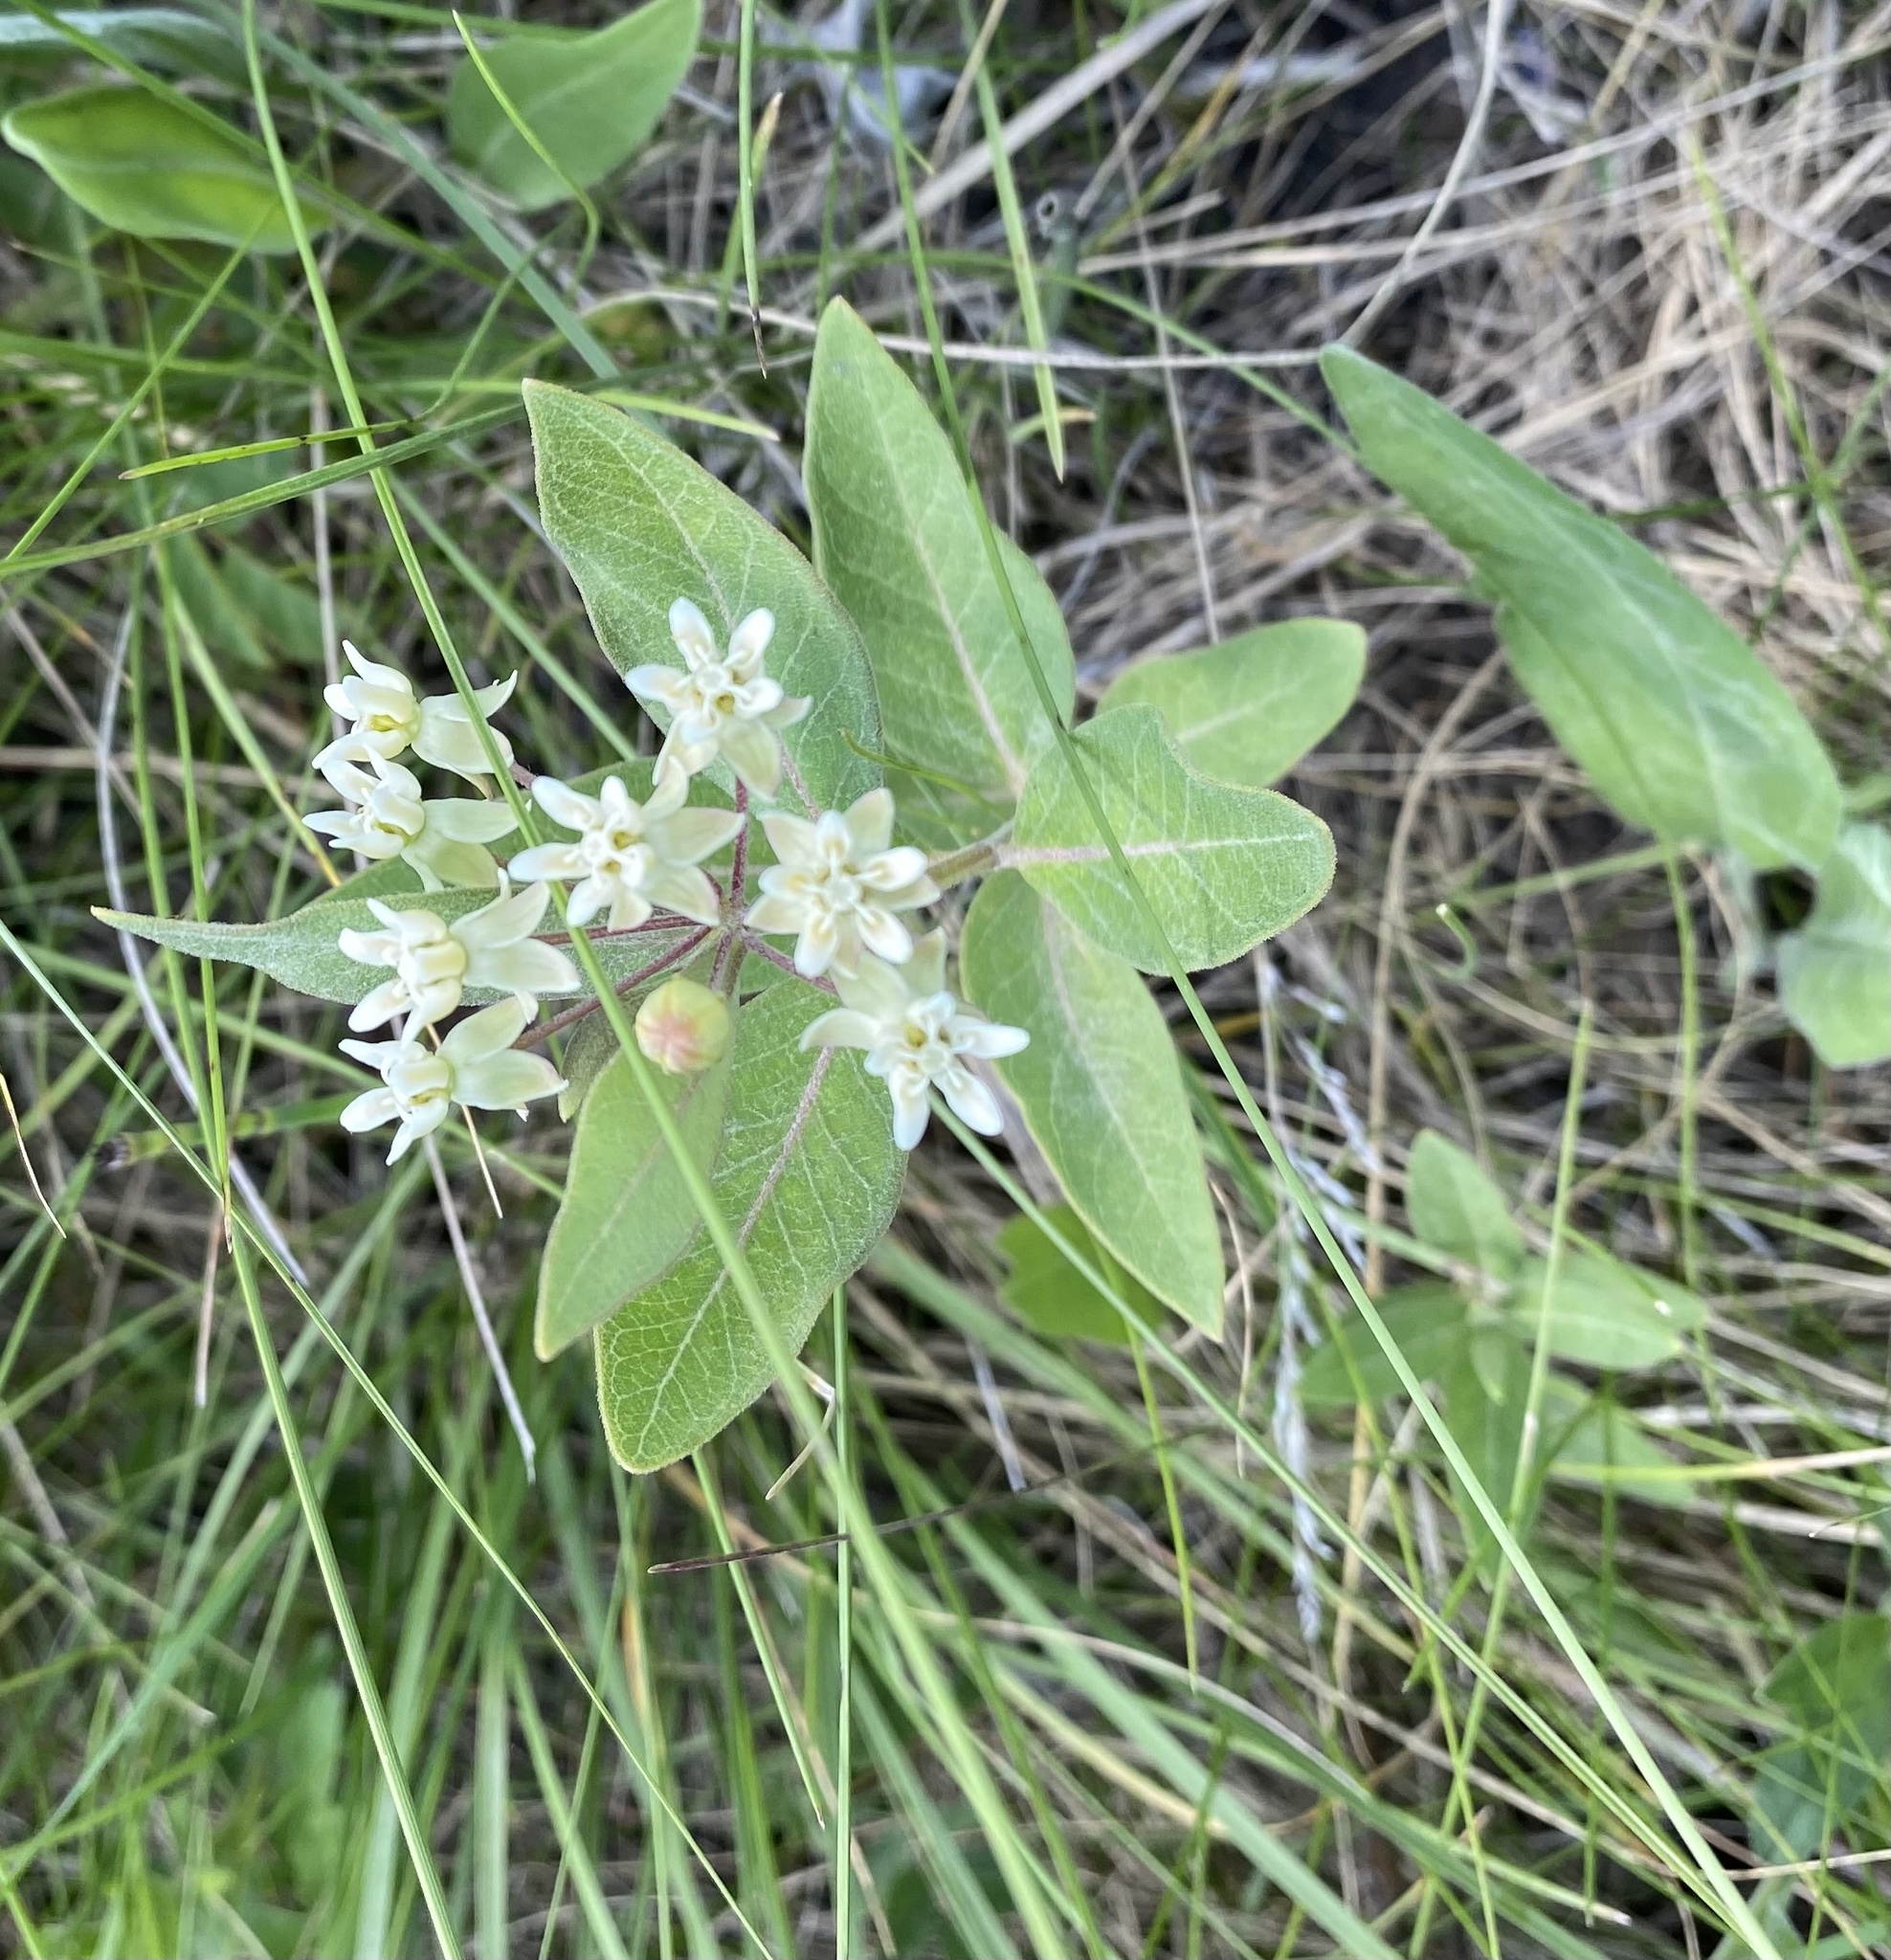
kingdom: Plantae
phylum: Tracheophyta
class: Magnoliopsida
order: Gentianales
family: Apocynaceae
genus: Asclepias
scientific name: Asclepias ovalifolia
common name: Dwarf milkweed
